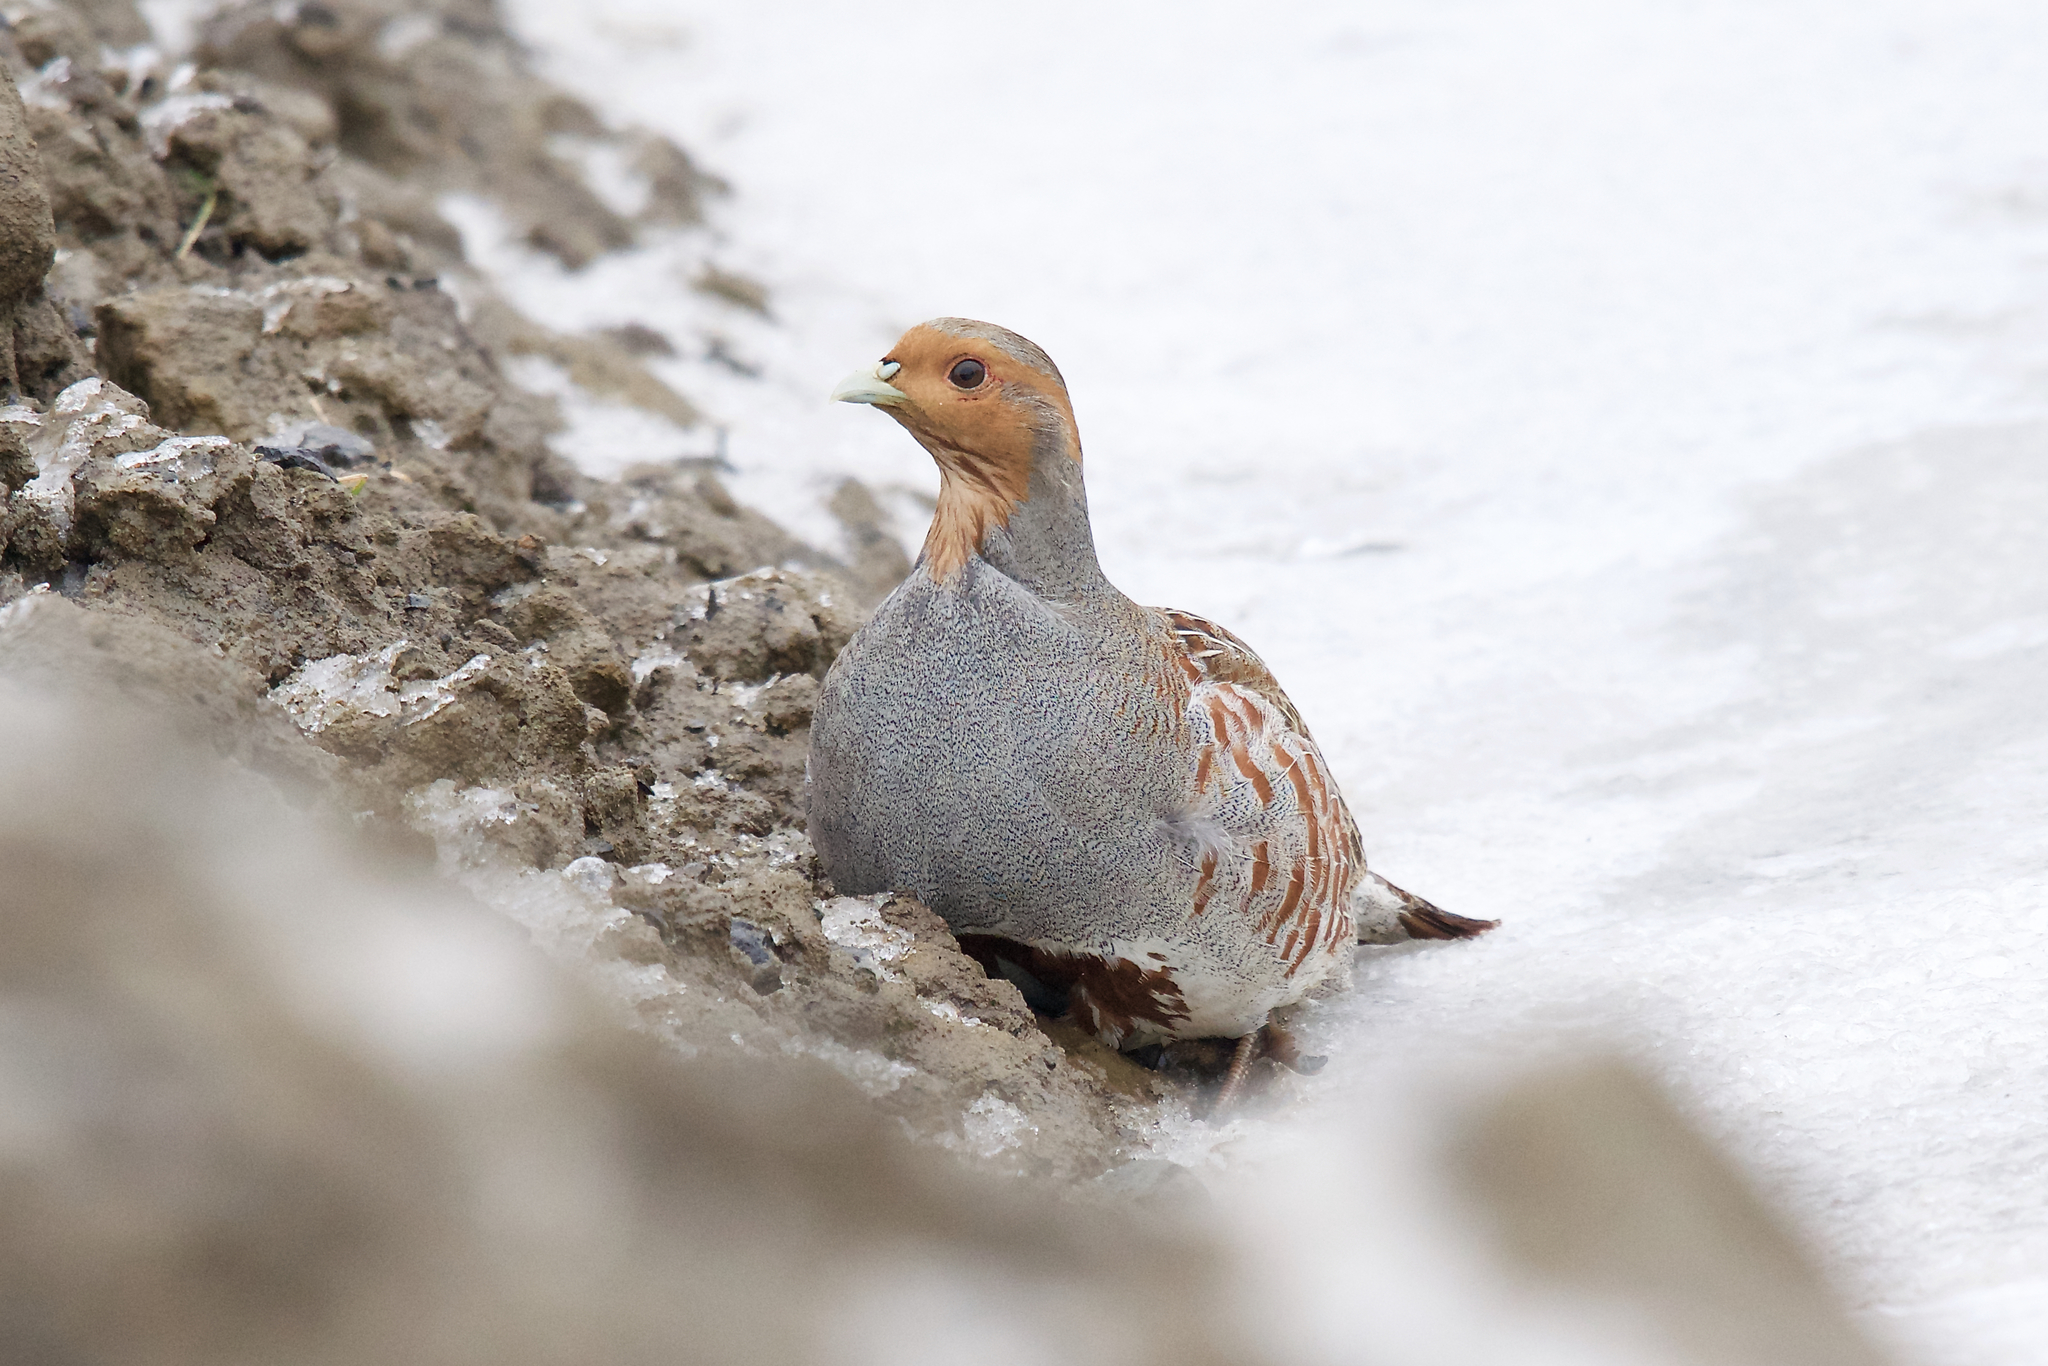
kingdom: Animalia
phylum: Chordata
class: Aves
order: Galliformes
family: Phasianidae
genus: Perdix
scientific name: Perdix perdix
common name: Grey partridge
